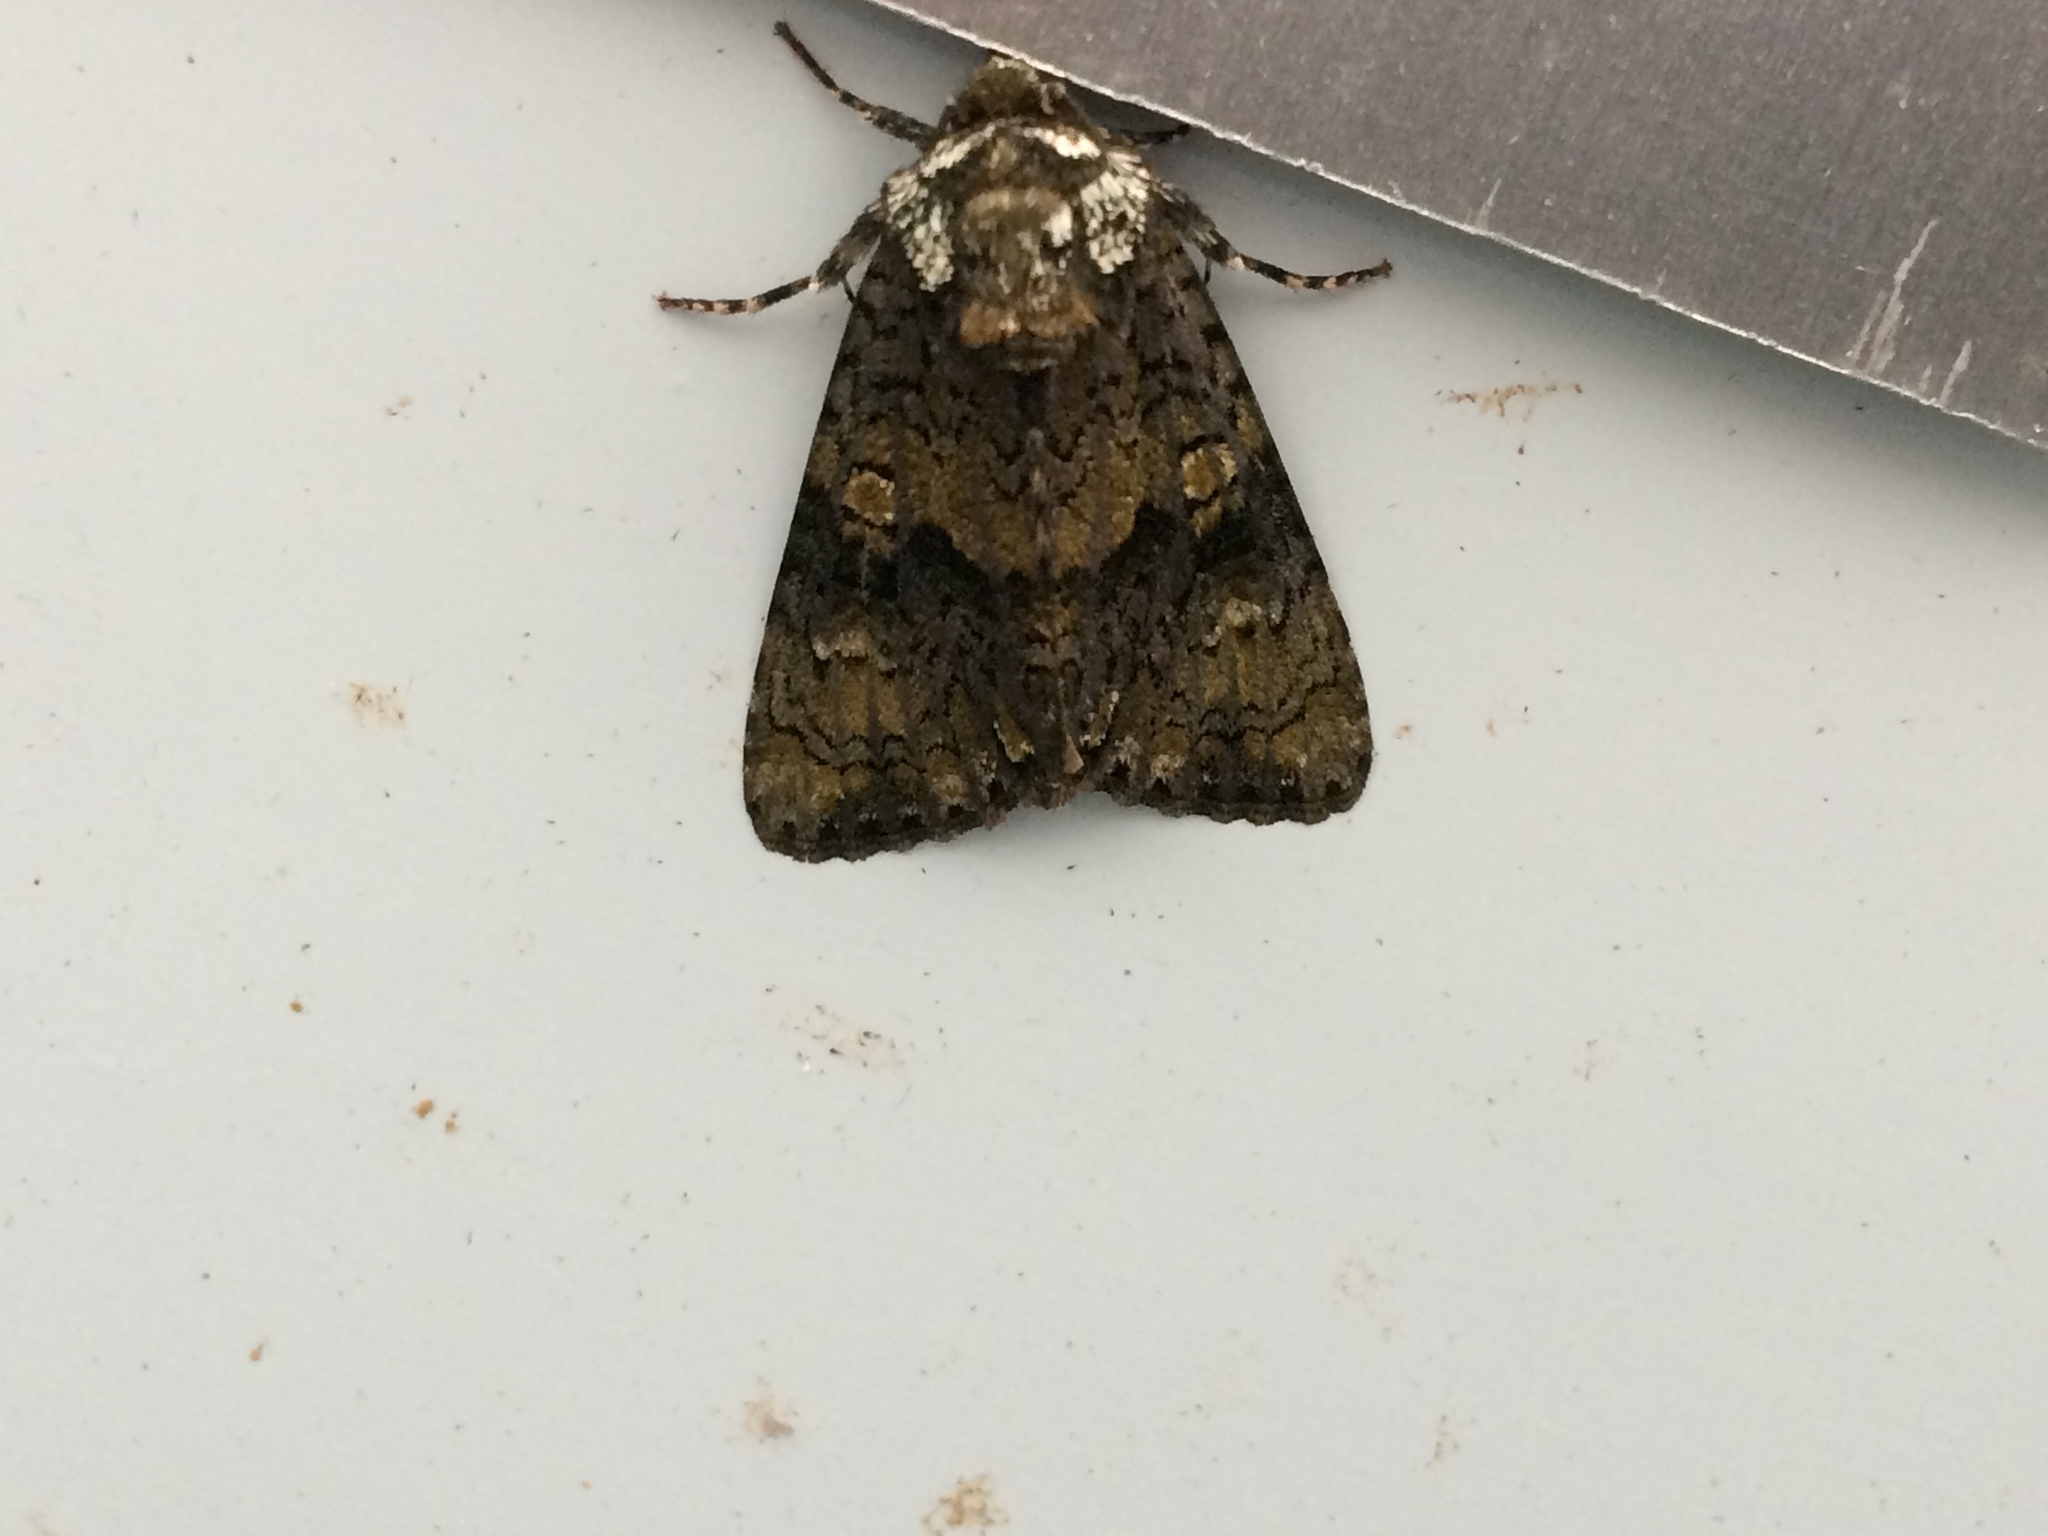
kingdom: Animalia
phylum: Arthropoda
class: Insecta
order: Lepidoptera
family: Noctuidae
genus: Craniophora
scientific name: Craniophora ligustri
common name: Coronet
